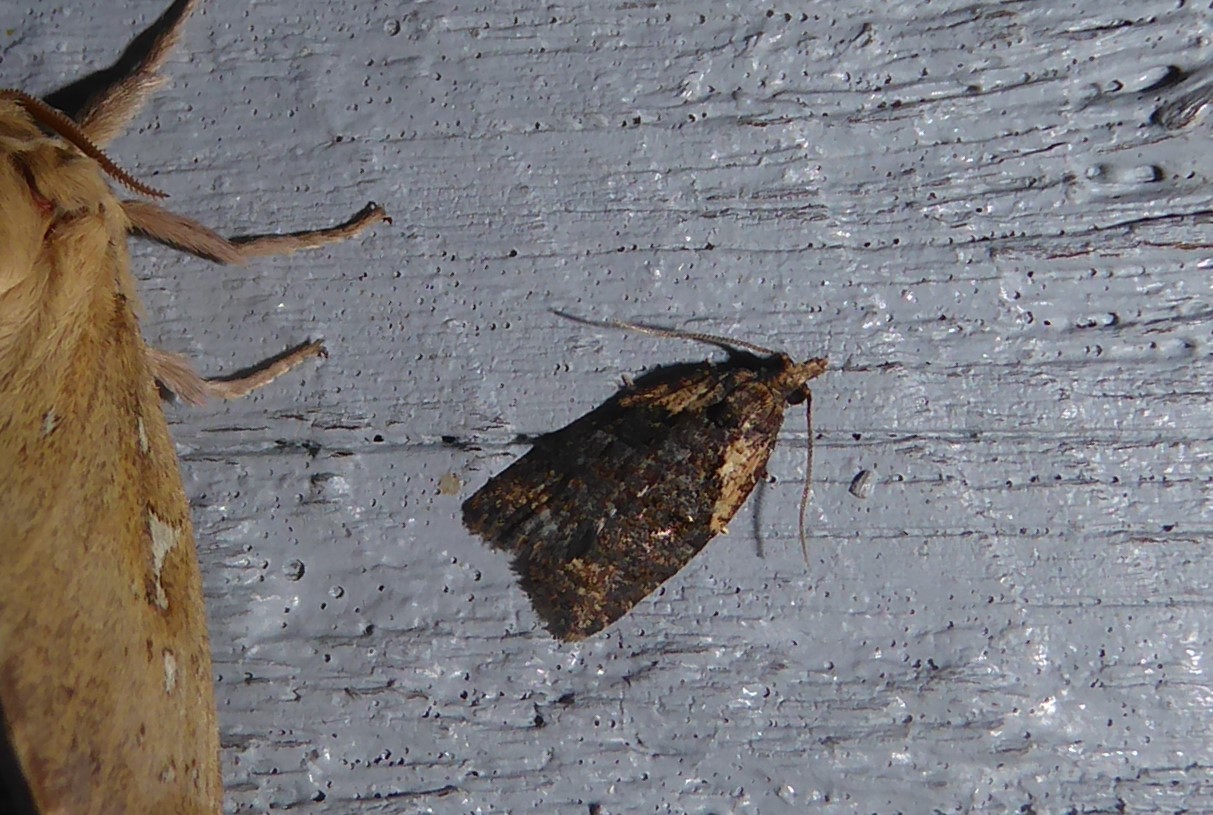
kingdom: Animalia
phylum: Arthropoda
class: Insecta
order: Lepidoptera
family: Tortricidae
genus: Capua
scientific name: Capua intractana
